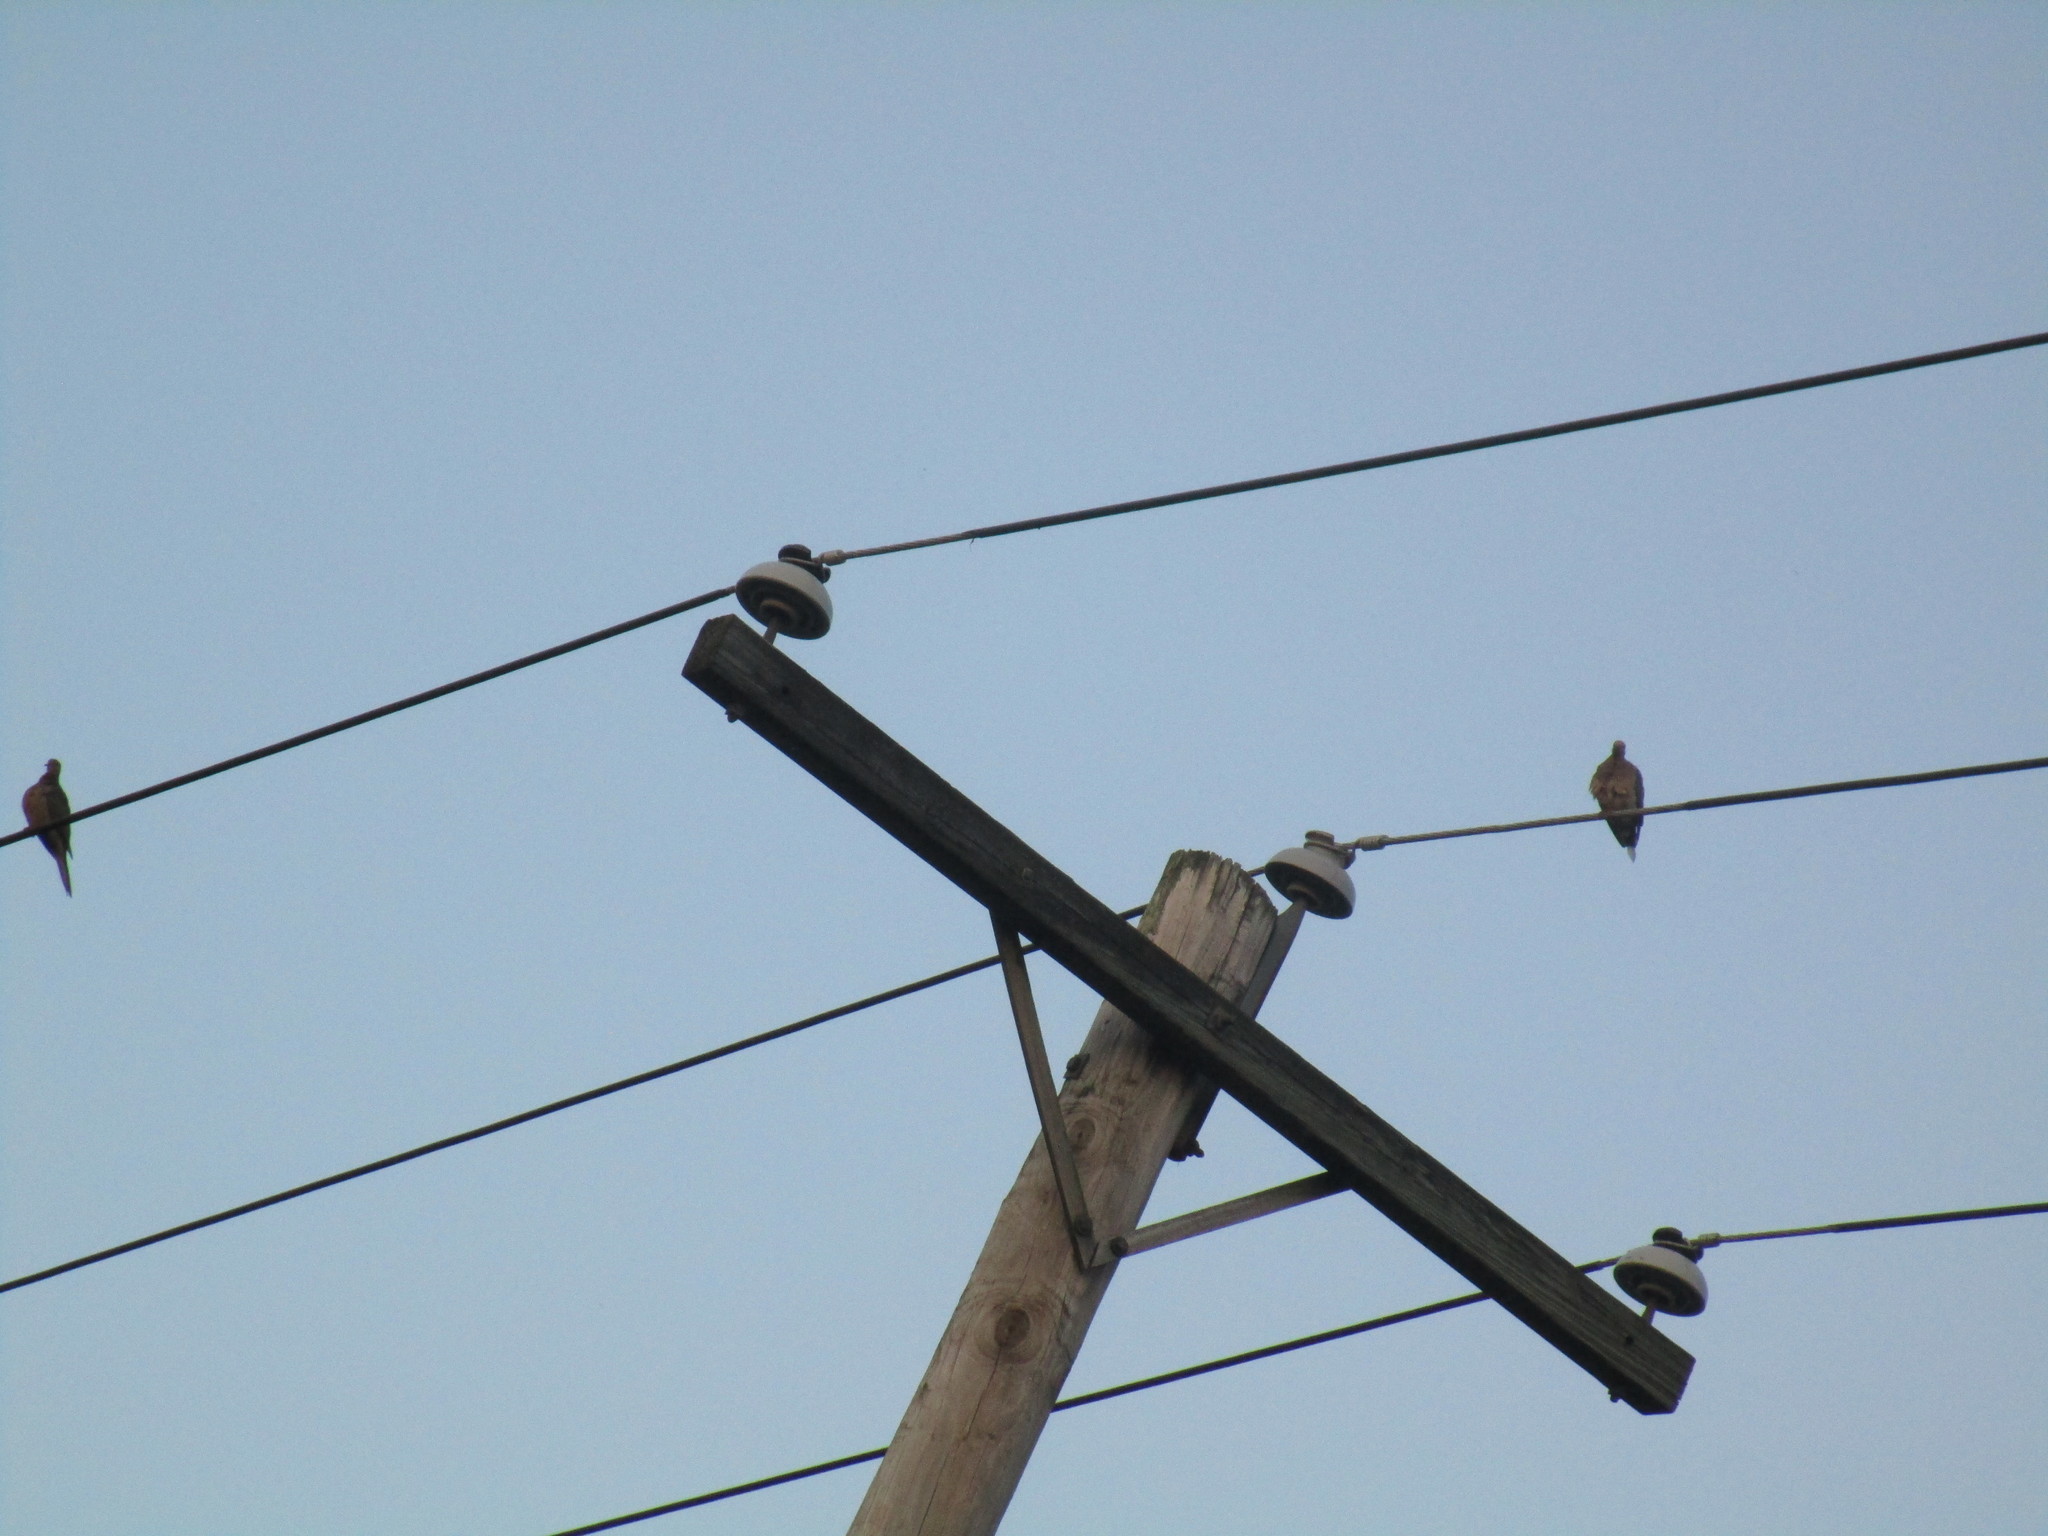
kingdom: Animalia
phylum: Chordata
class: Aves
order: Columbiformes
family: Columbidae
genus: Zenaida
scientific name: Zenaida macroura
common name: Mourning dove
